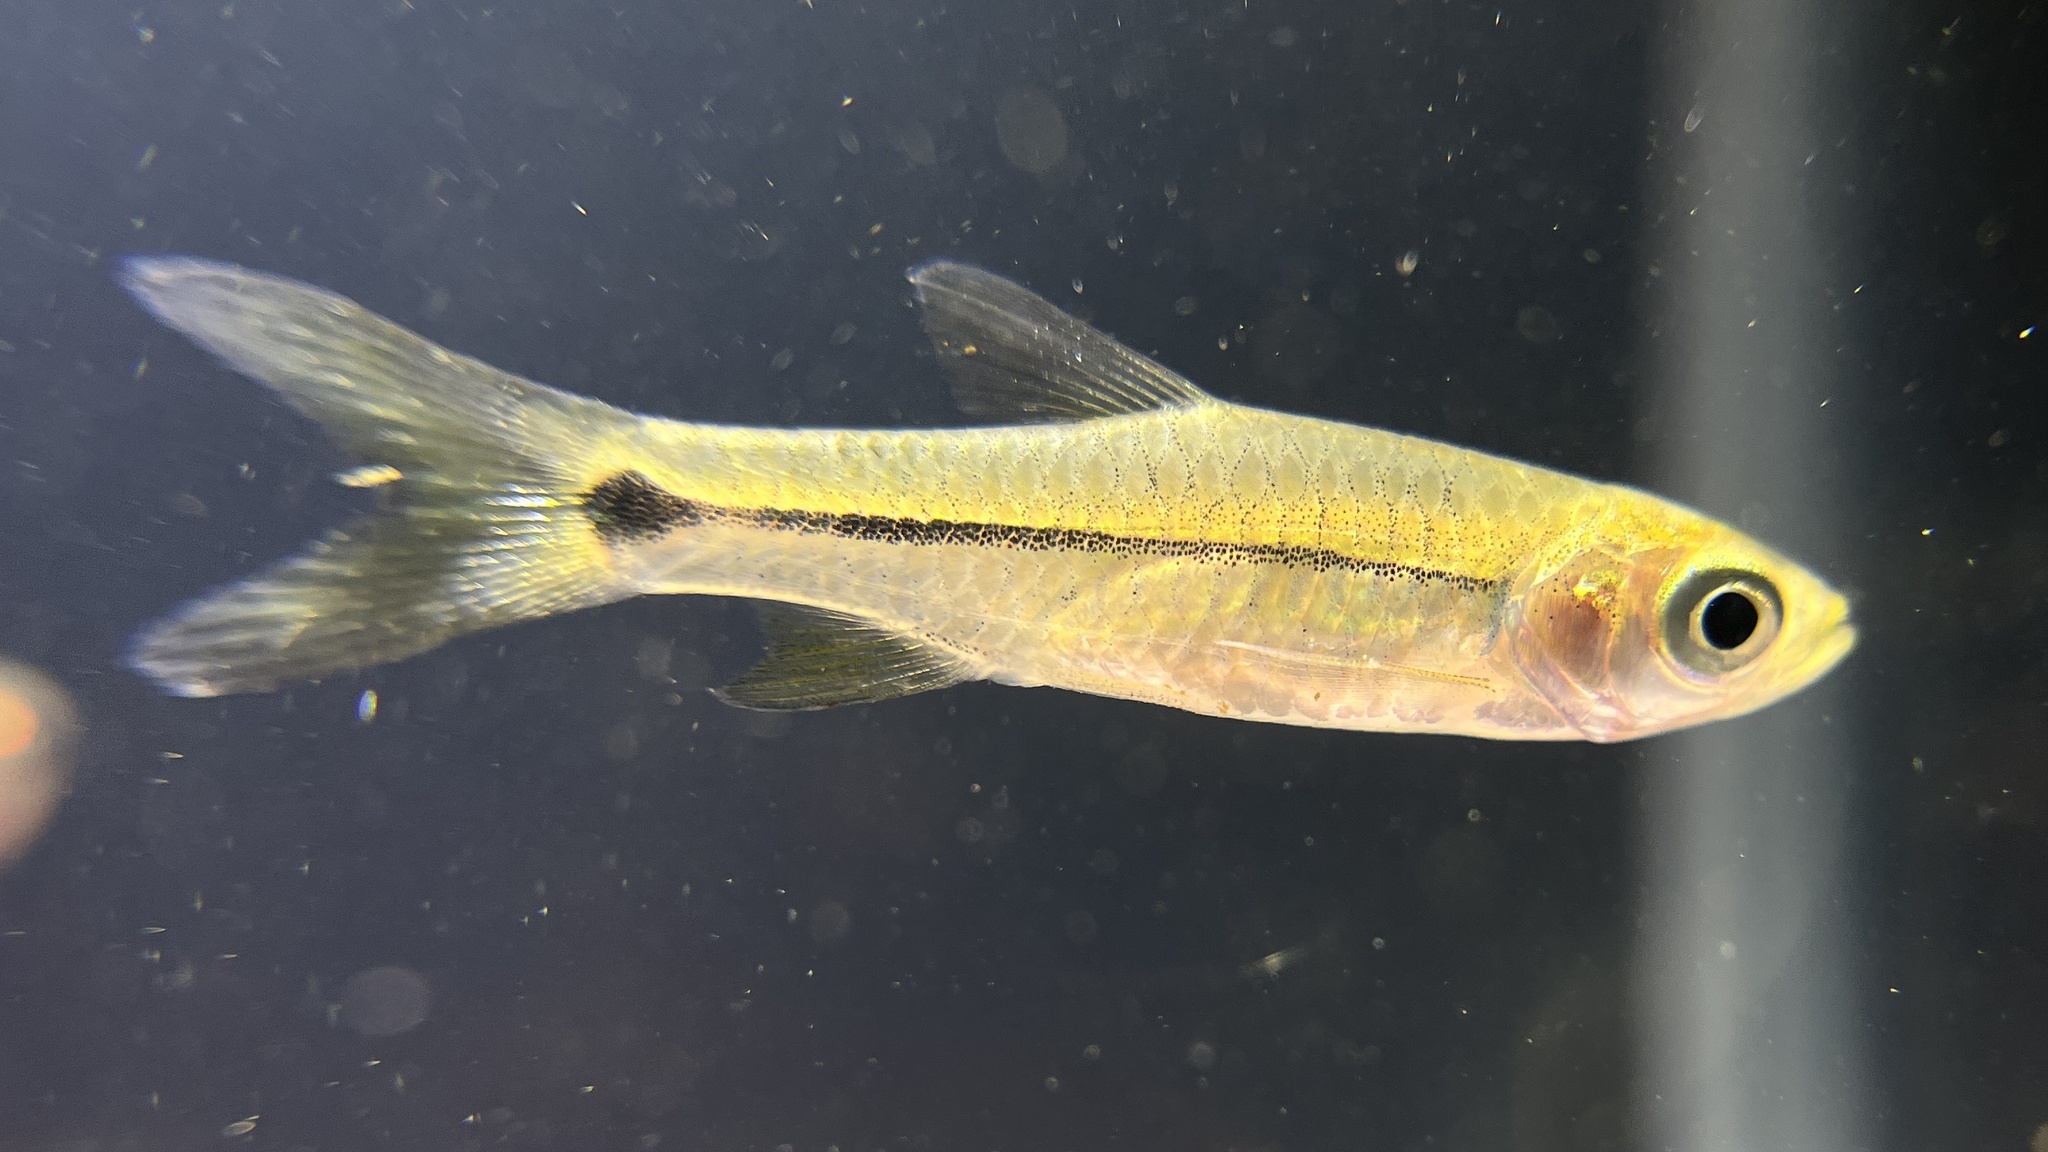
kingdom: Animalia
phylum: Chordata
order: Cypriniformes
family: Cyprinidae
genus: Rasbora
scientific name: Rasbora paviana
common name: Sidestripe rasbora
